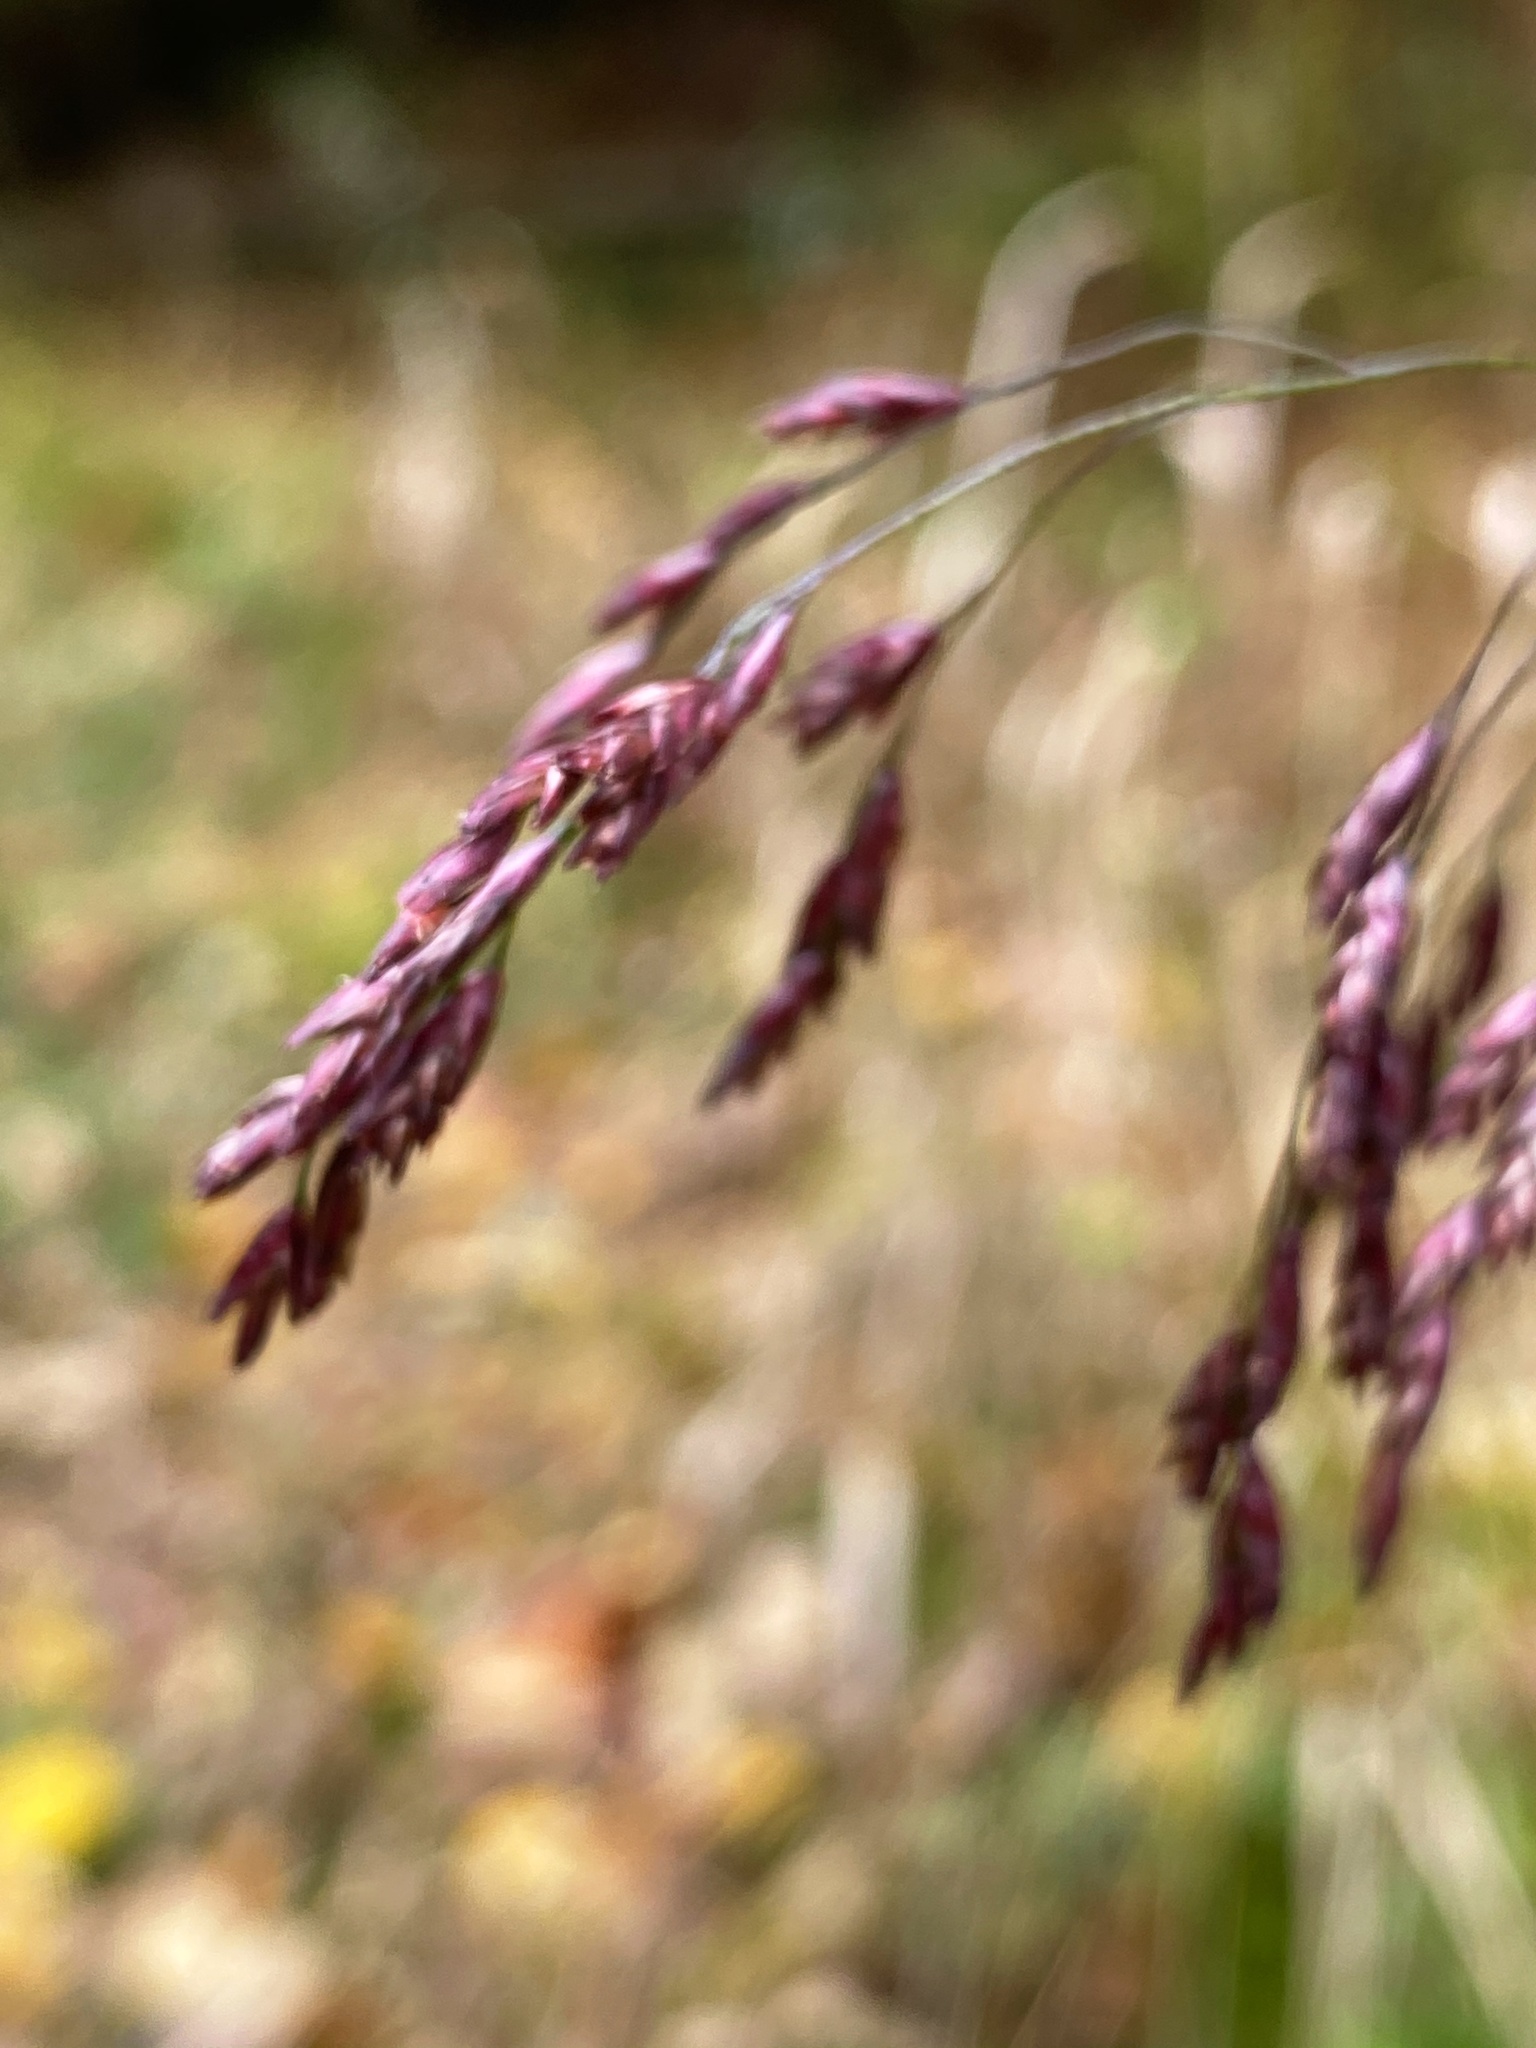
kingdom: Plantae
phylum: Tracheophyta
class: Liliopsida
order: Poales
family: Poaceae
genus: Tridens
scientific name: Tridens flavus
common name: Purpletop
